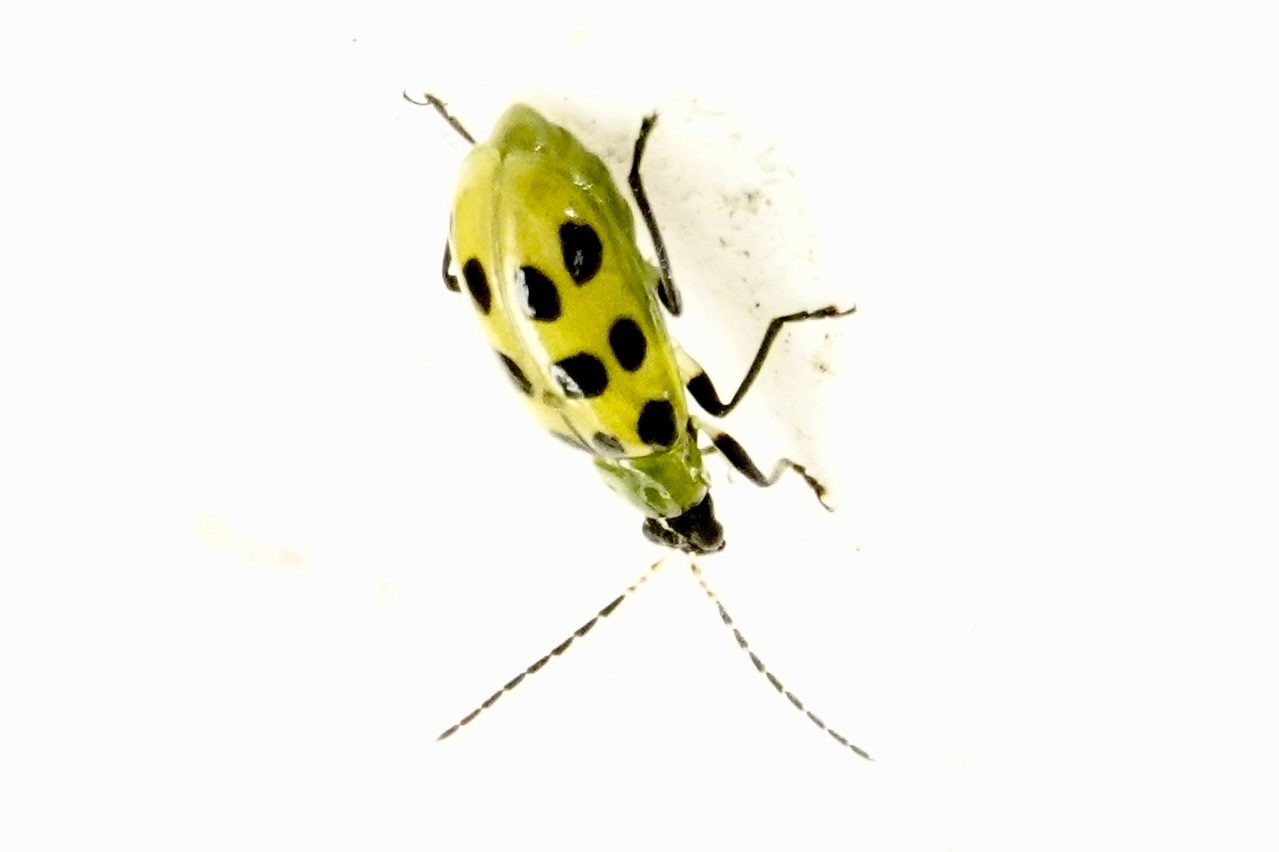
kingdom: Animalia
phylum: Arthropoda
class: Insecta
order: Coleoptera
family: Chrysomelidae
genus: Diabrotica
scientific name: Diabrotica undecimpunctata
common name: Spotted cucumber beetle
